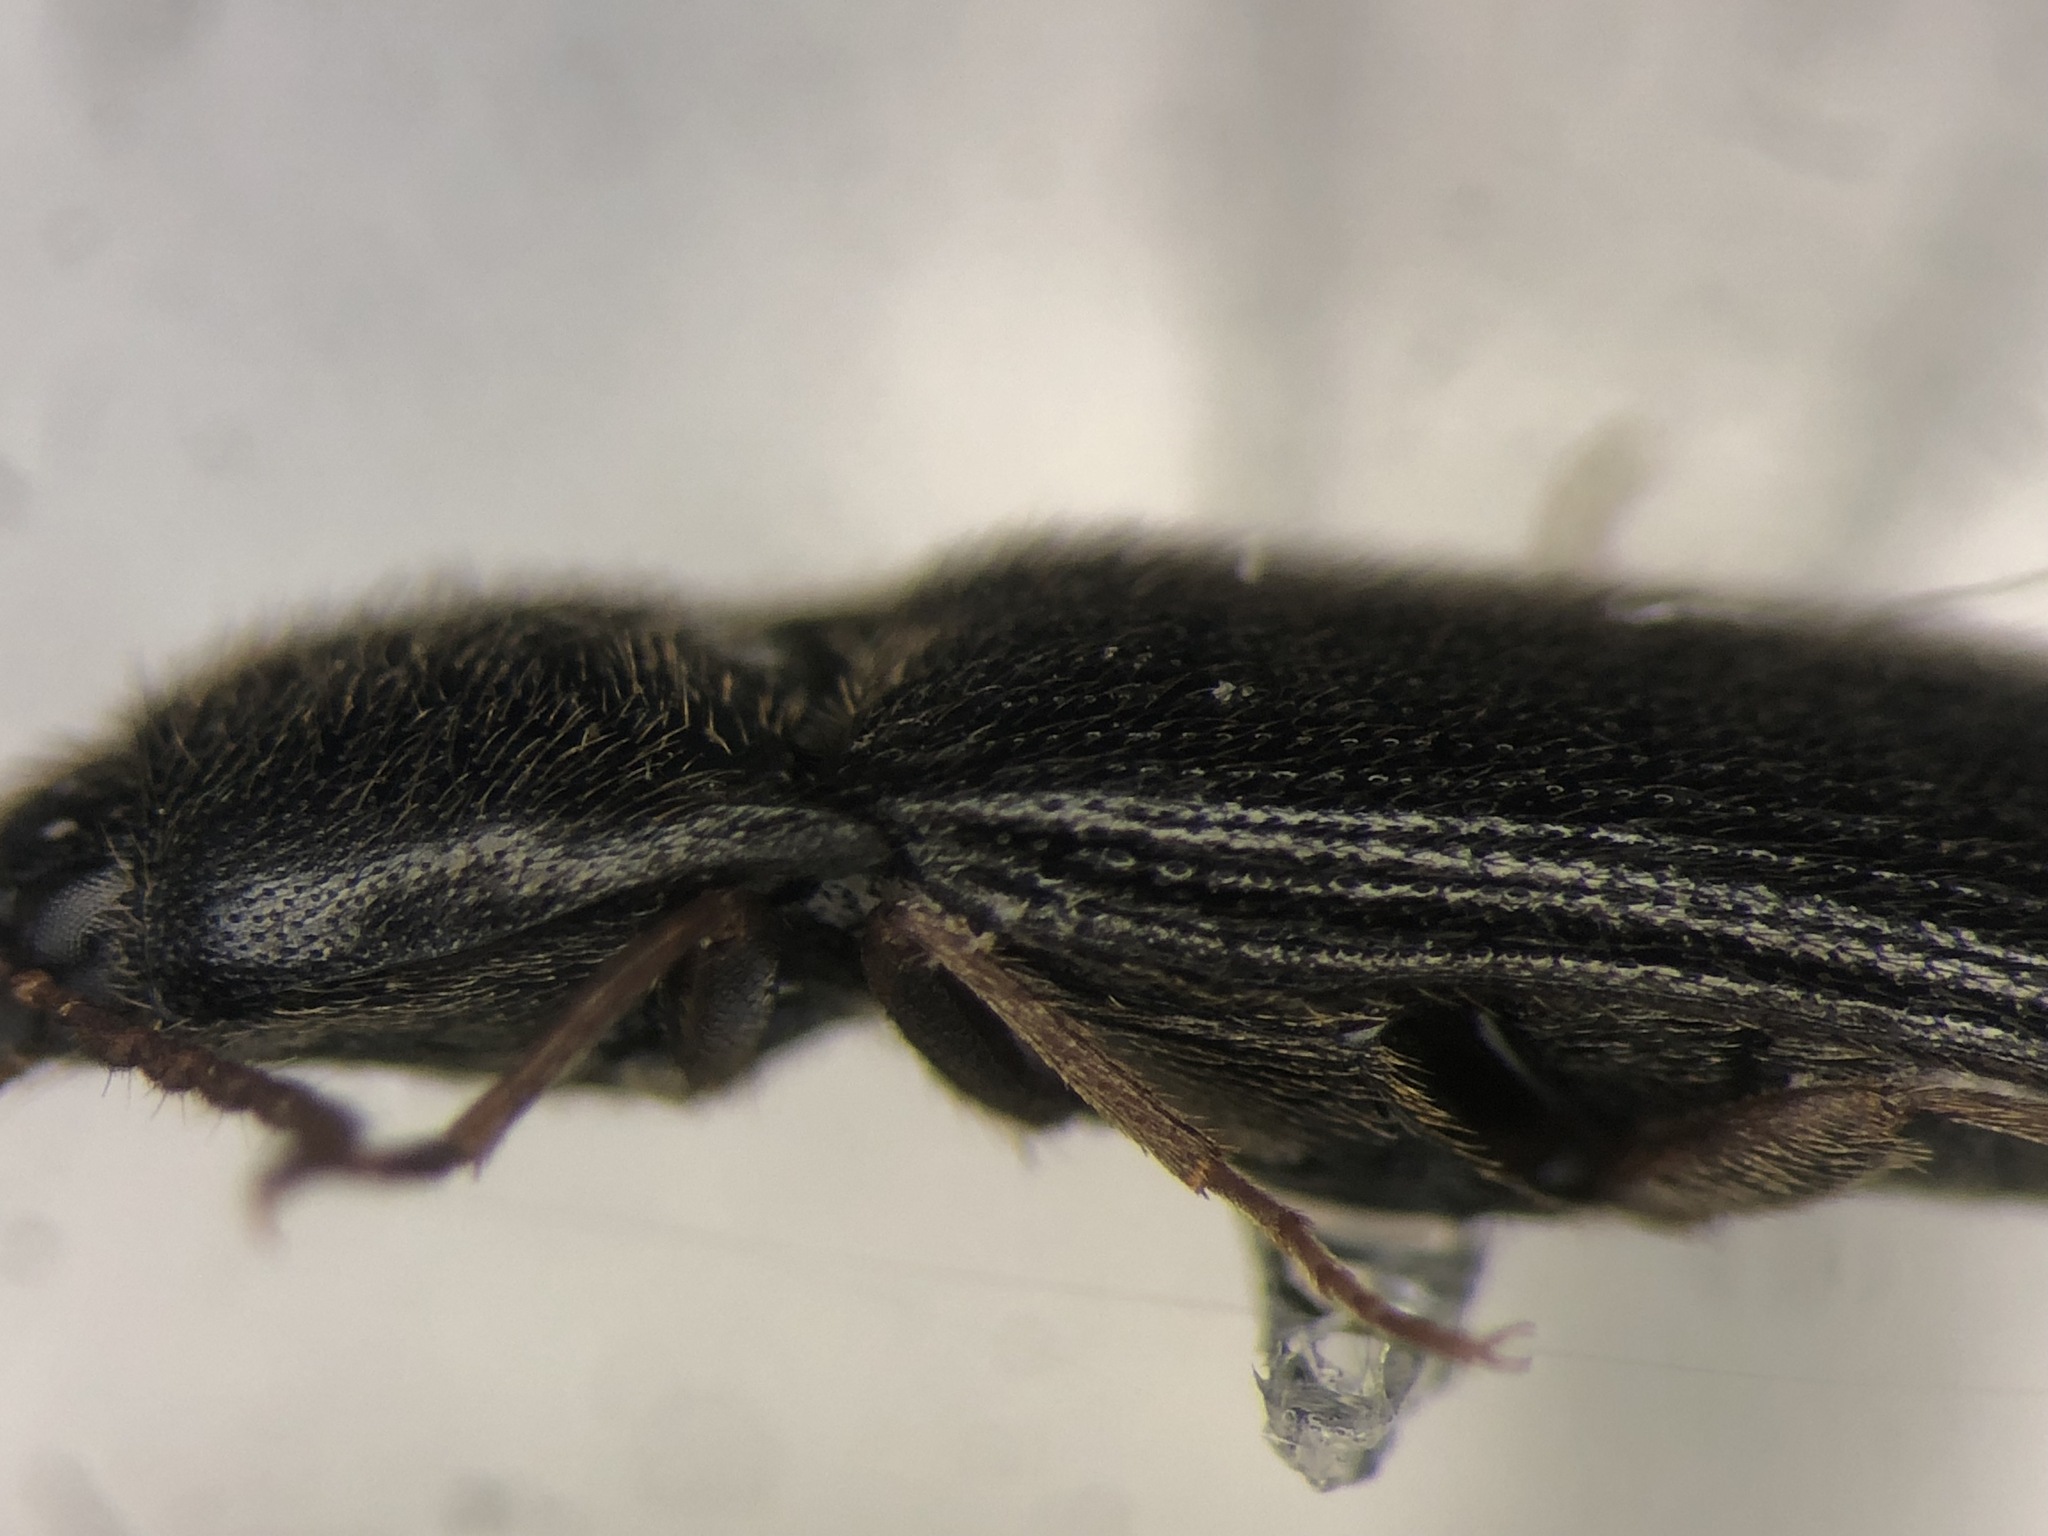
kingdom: Animalia
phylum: Arthropoda
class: Insecta
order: Coleoptera
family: Elateridae
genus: Ampedus
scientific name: Ampedus mixtus
